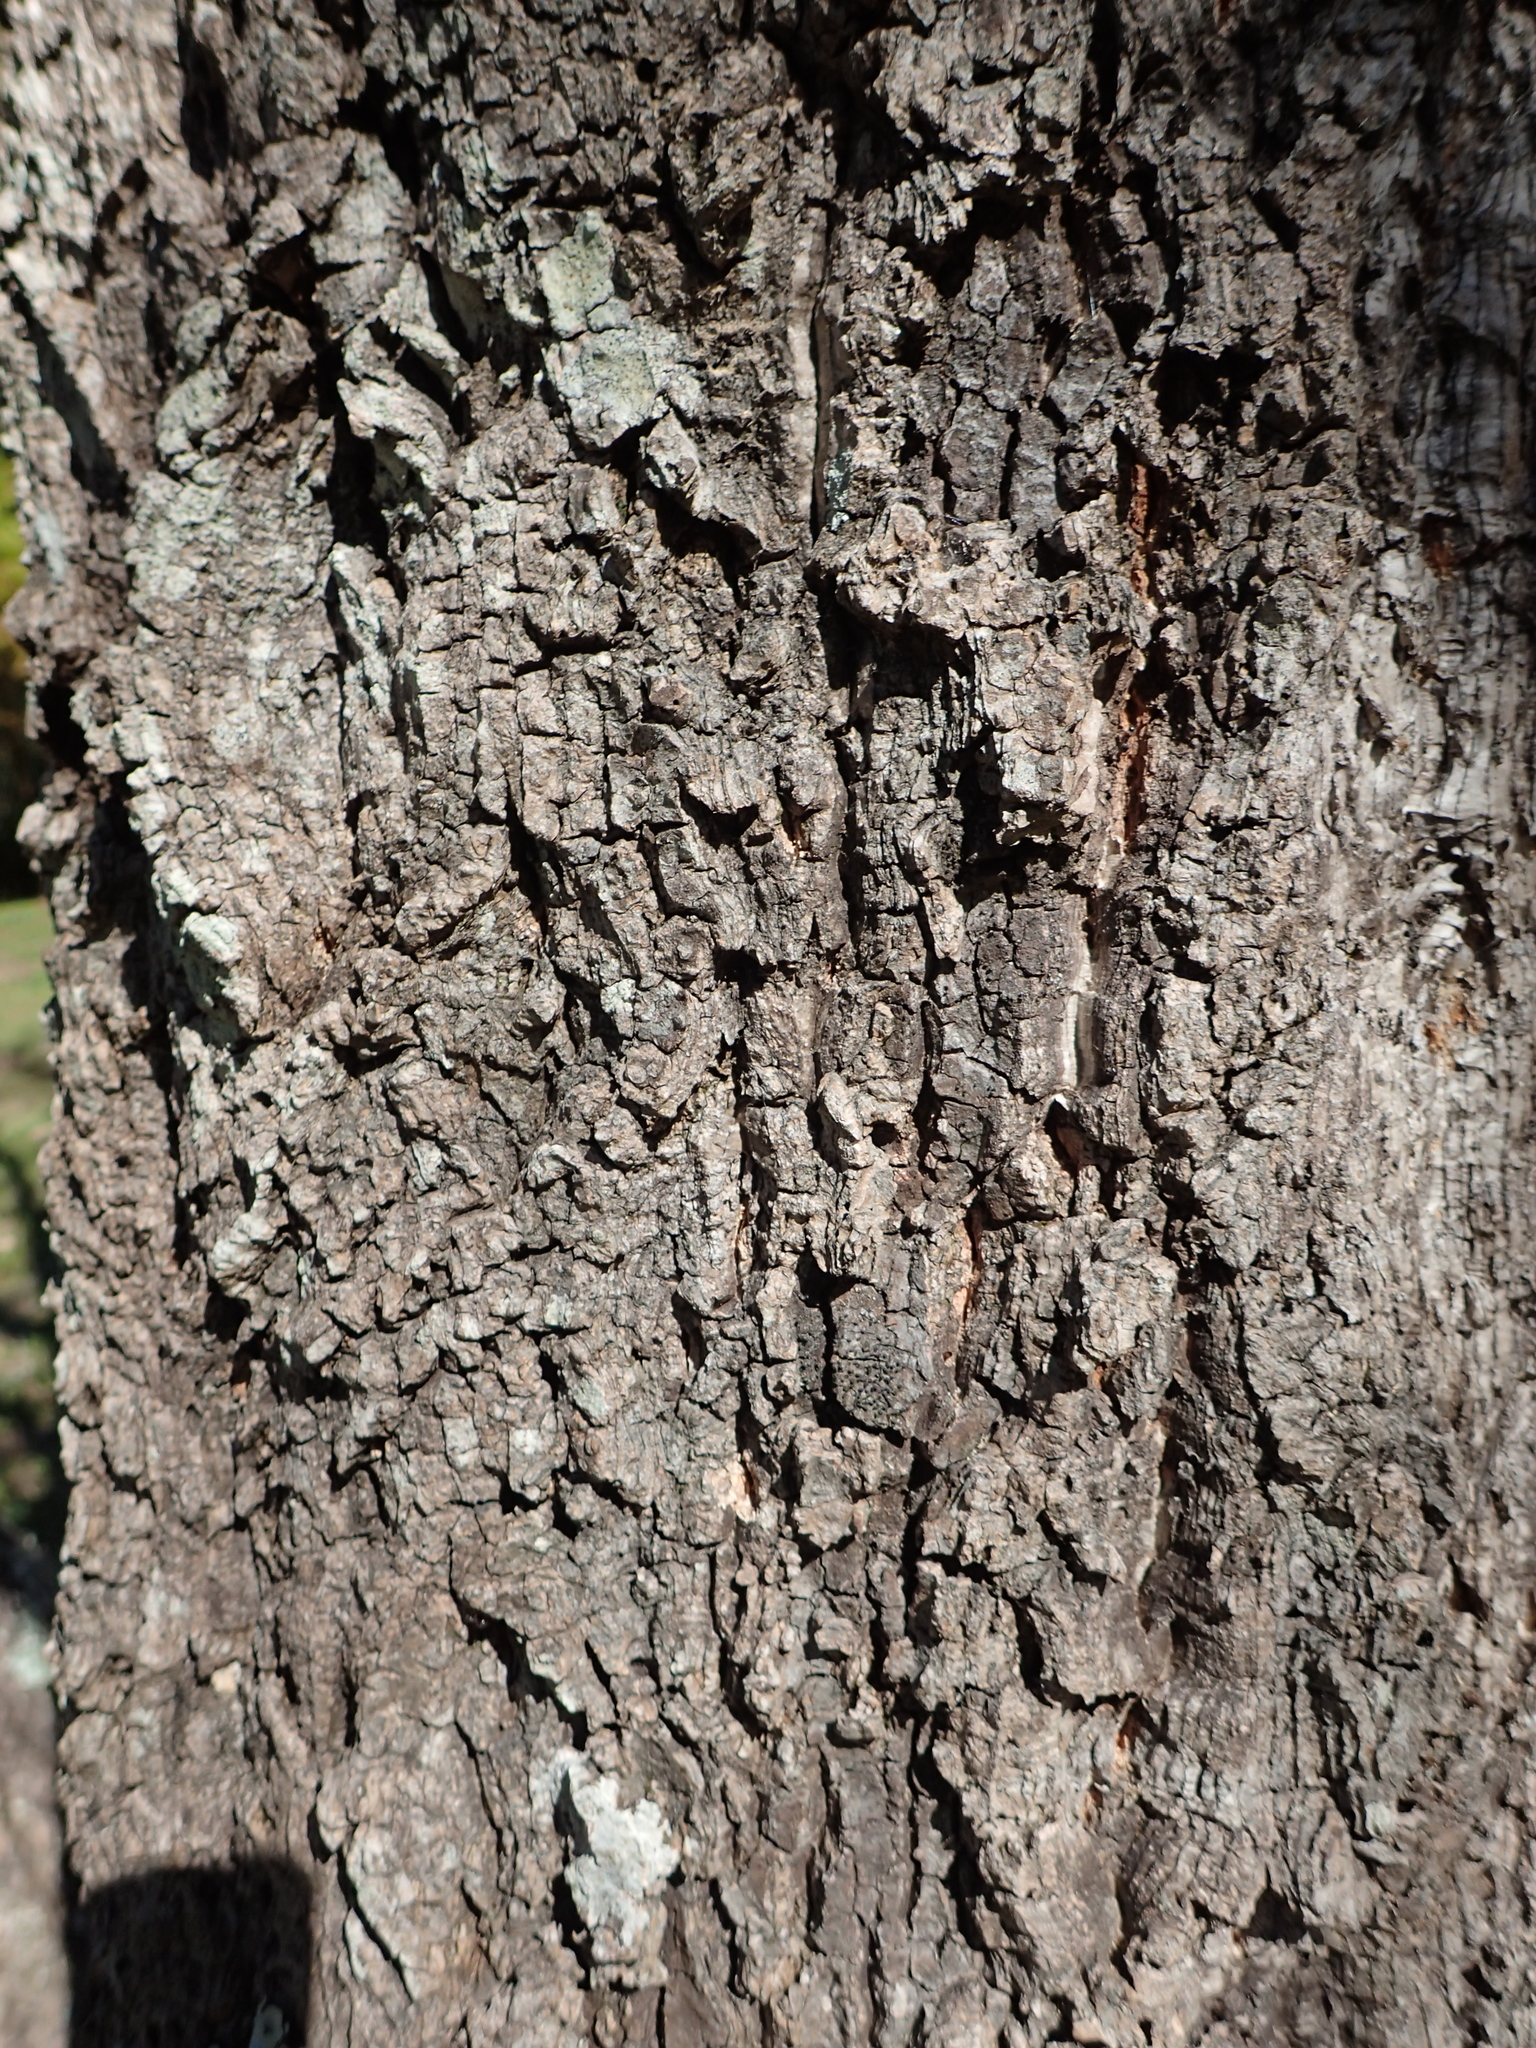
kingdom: Plantae
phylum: Tracheophyta
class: Magnoliopsida
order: Fagales
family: Fagaceae
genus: Quercus
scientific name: Quercus variabilis
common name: Chinese cork oak
